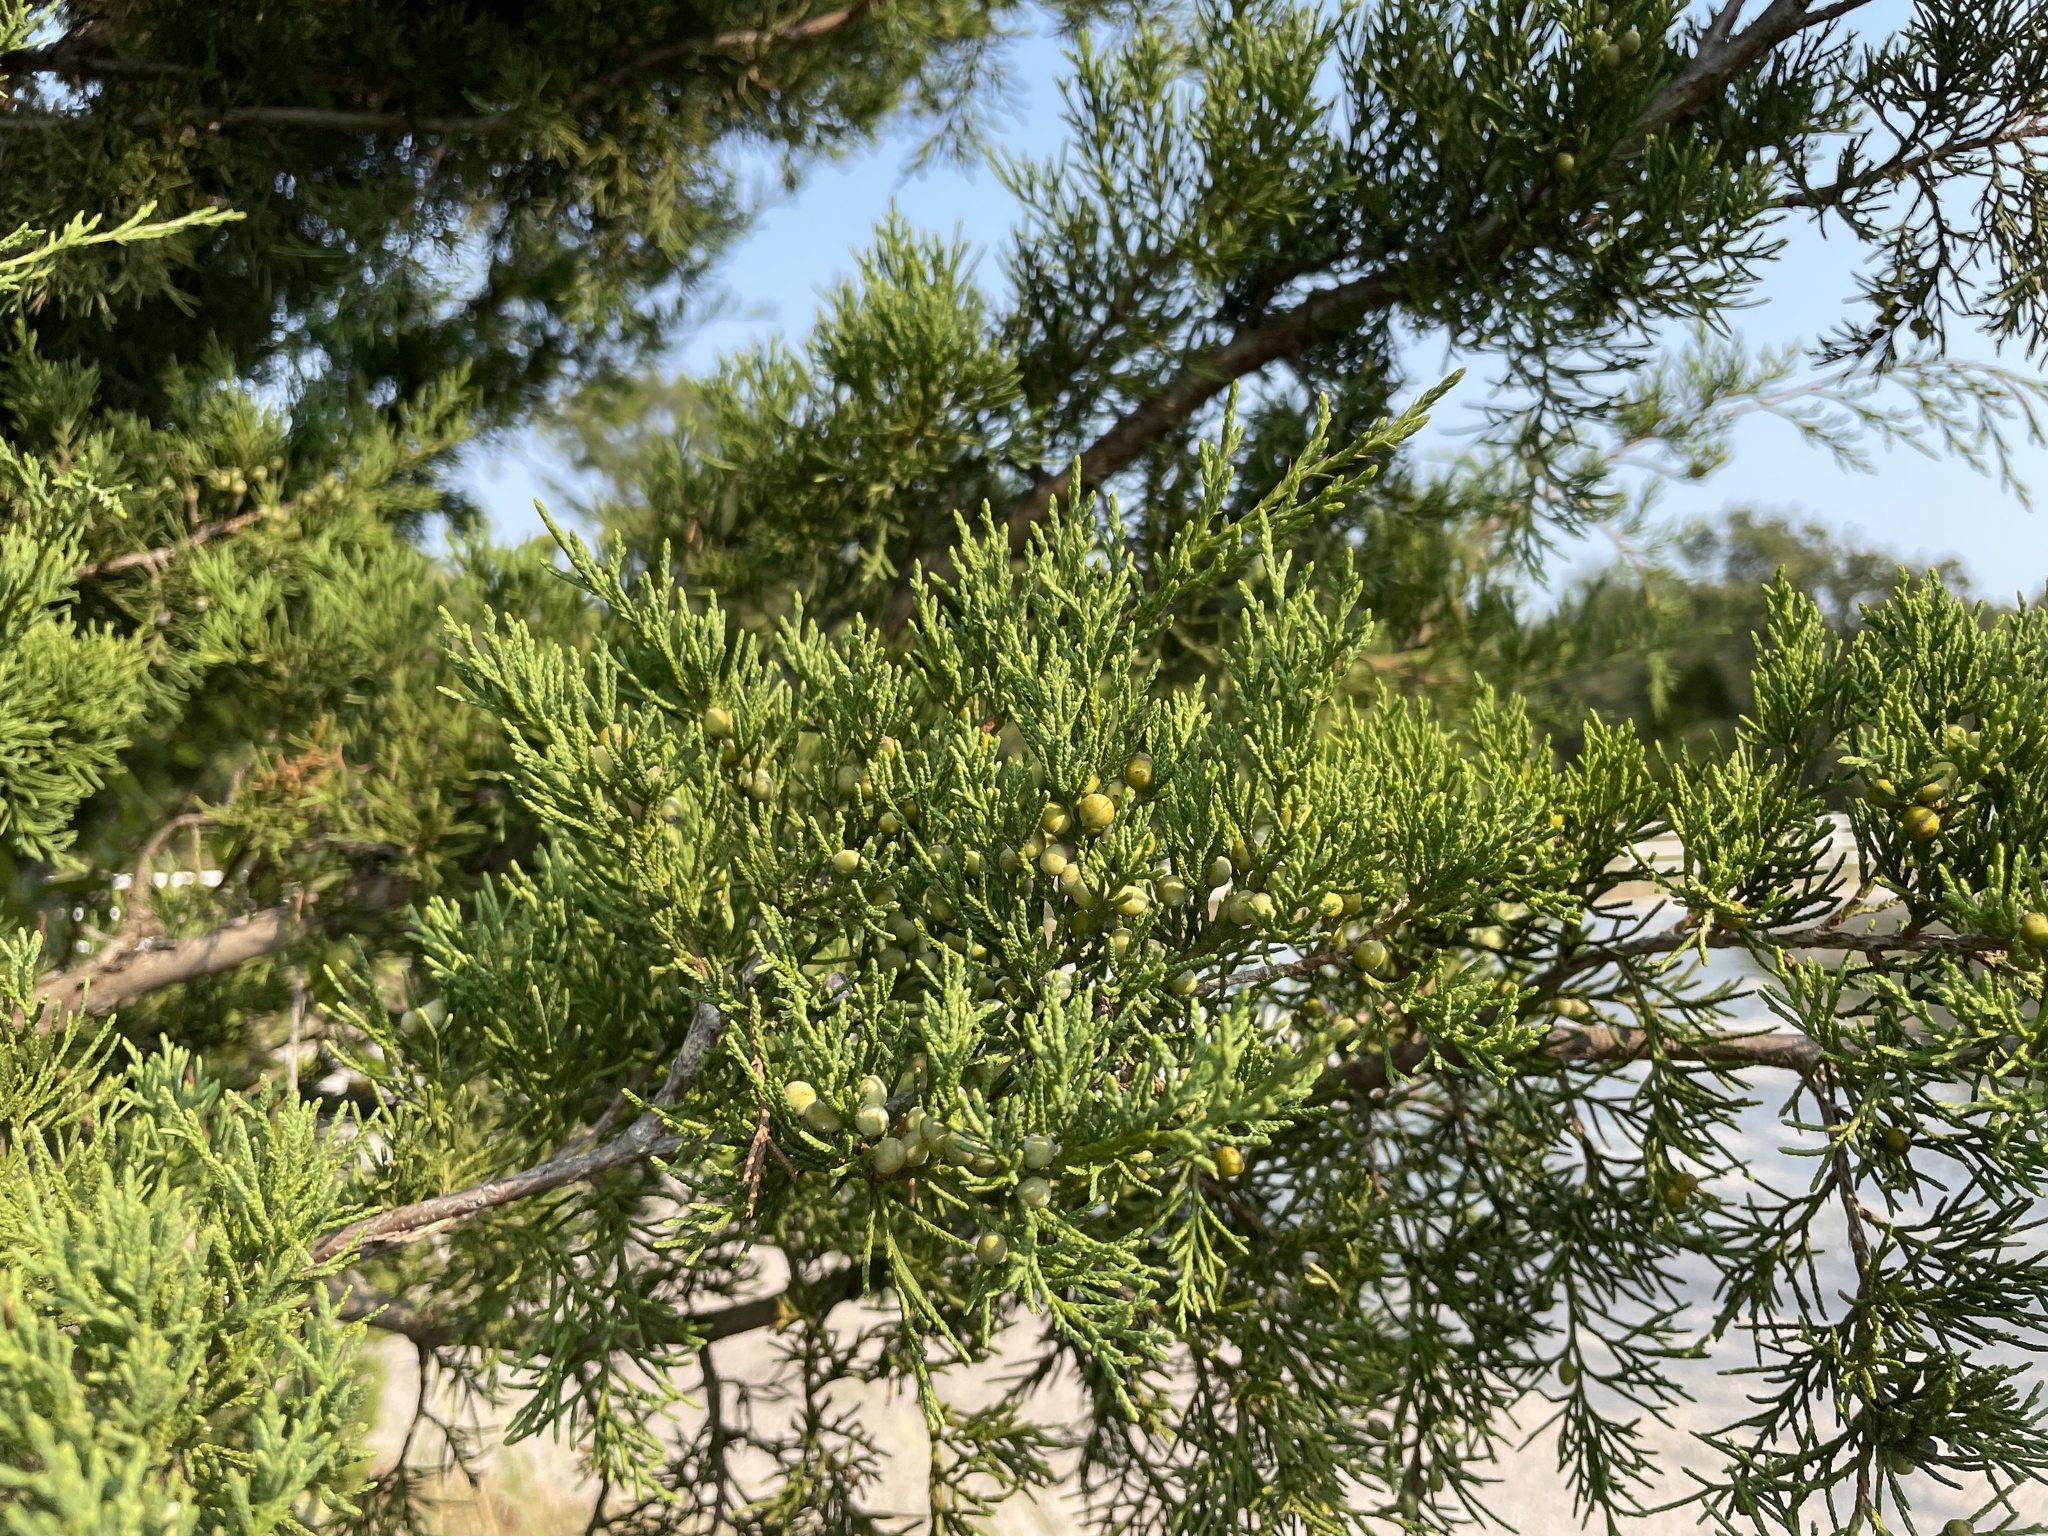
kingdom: Plantae
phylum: Tracheophyta
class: Pinopsida
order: Pinales
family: Cupressaceae
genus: Juniperus
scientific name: Juniperus virginiana
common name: Red juniper
